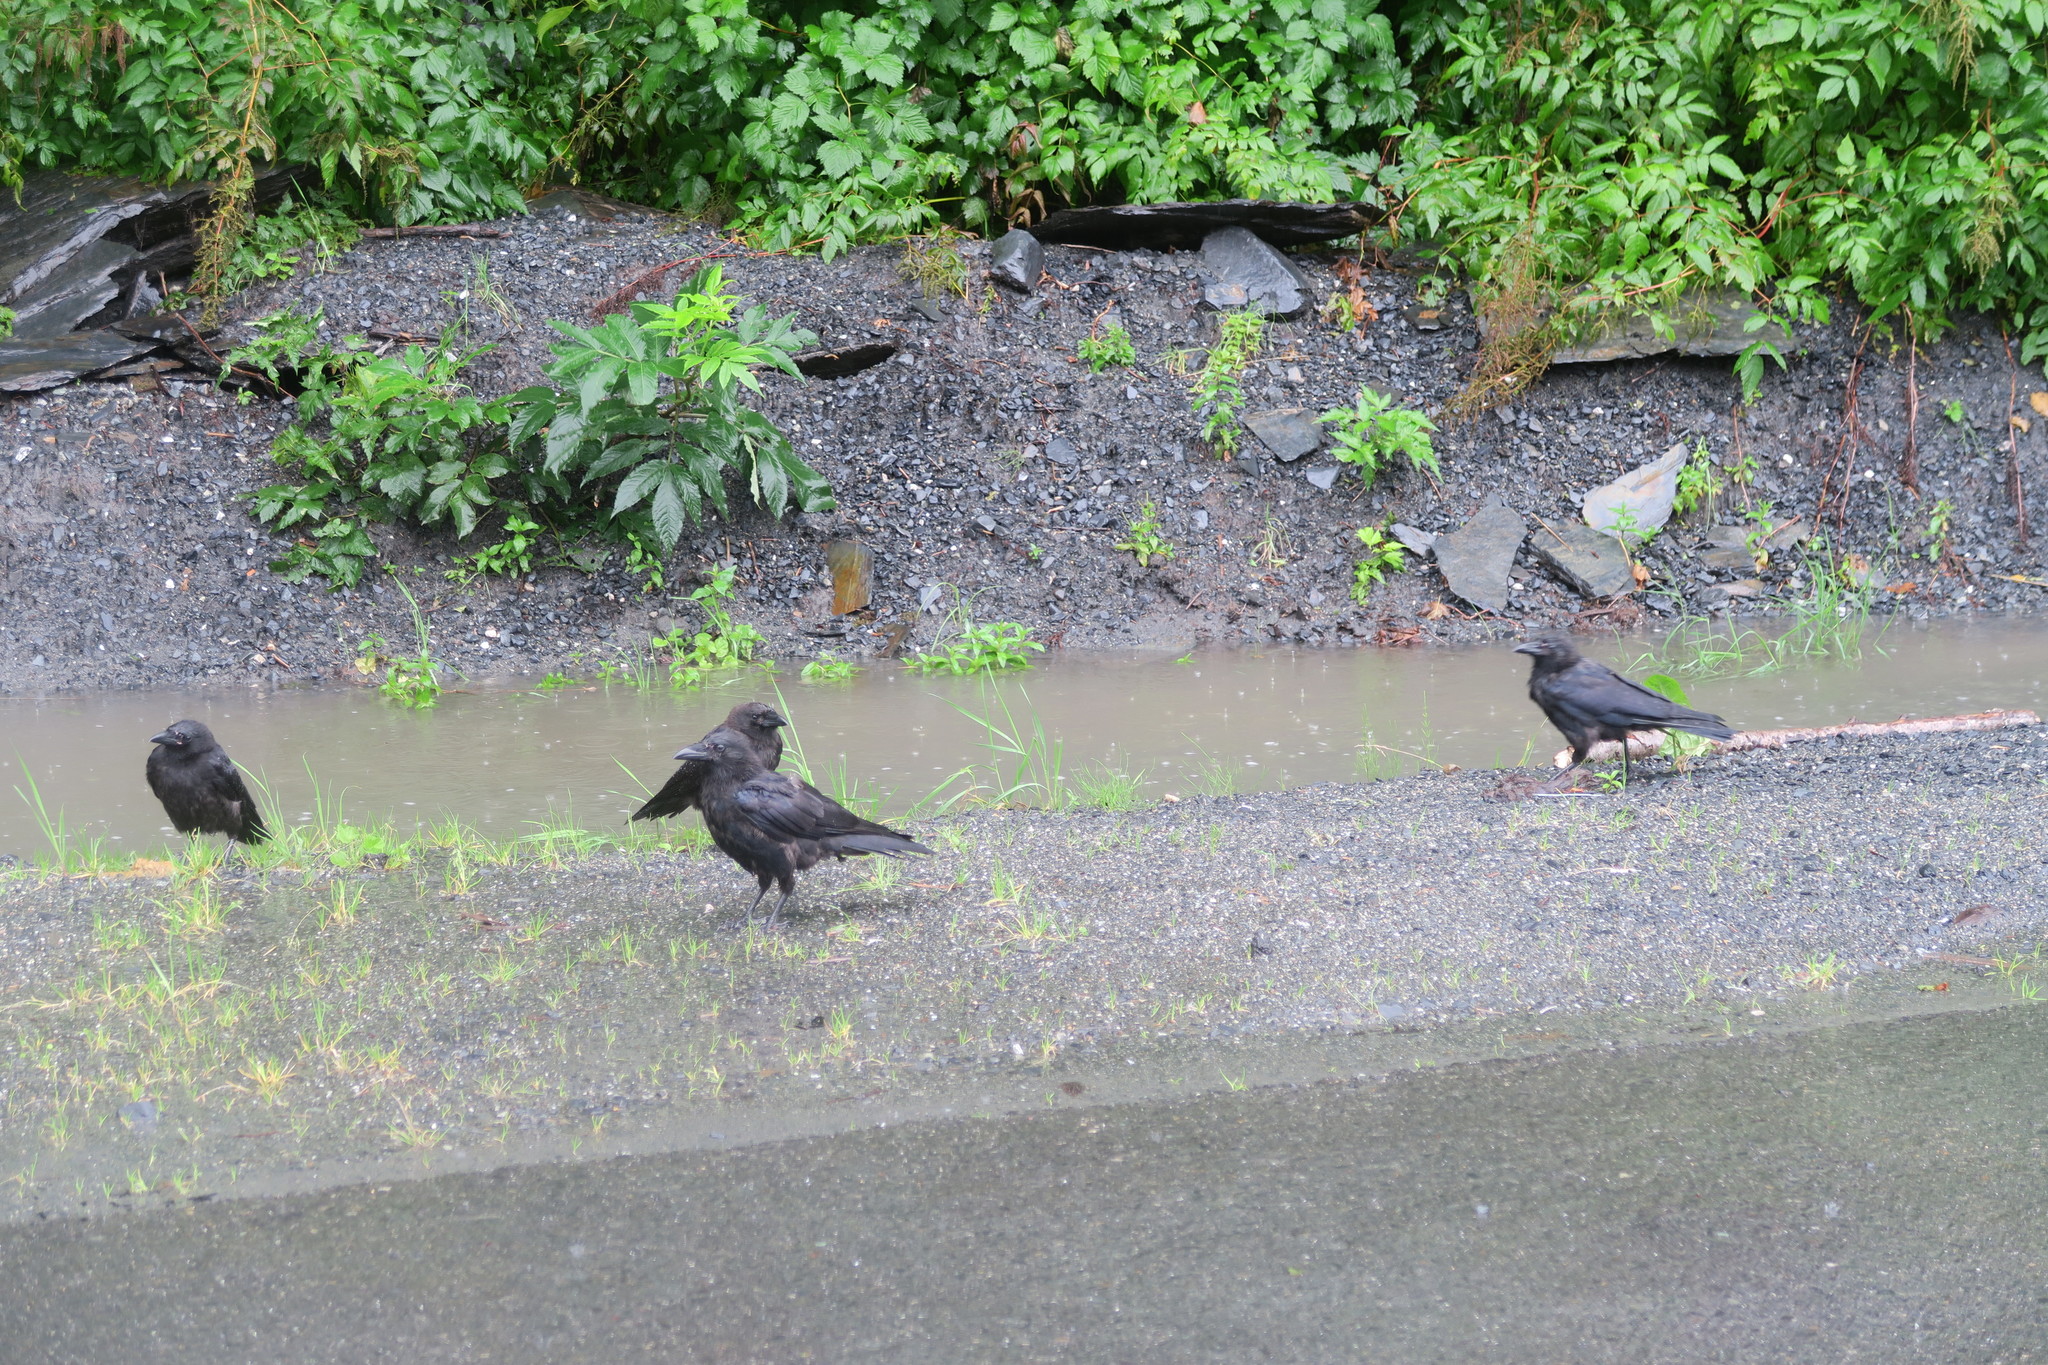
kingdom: Animalia
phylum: Chordata
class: Aves
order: Passeriformes
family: Corvidae
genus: Corvus
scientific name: Corvus corax
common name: Common raven
